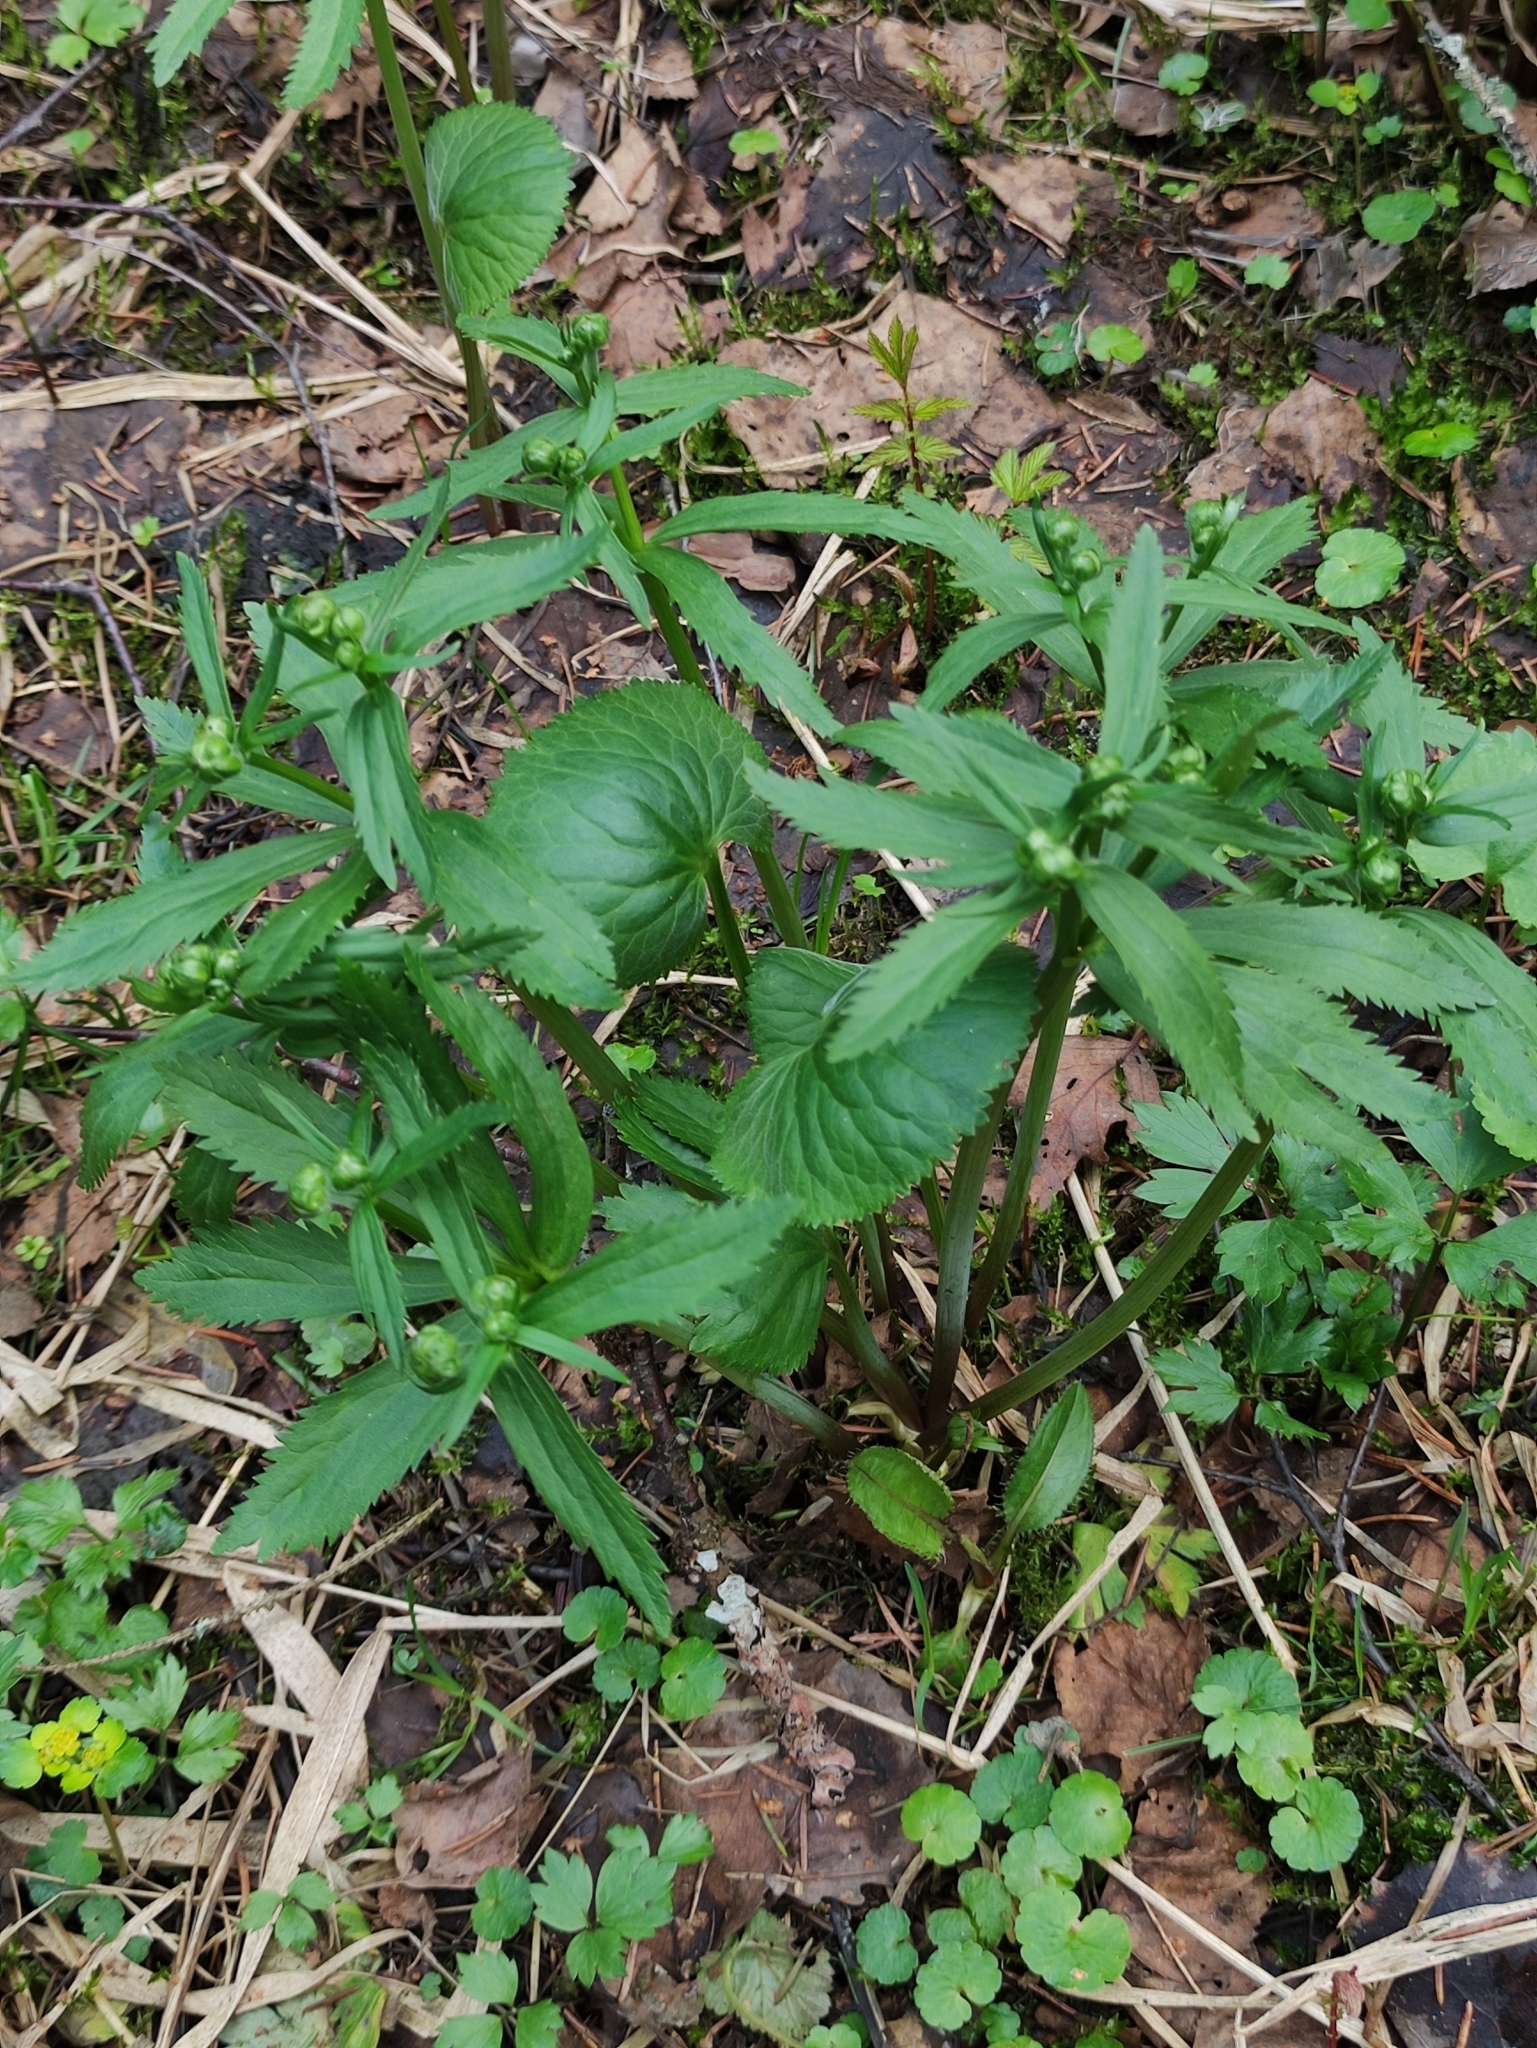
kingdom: Plantae
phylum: Tracheophyta
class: Magnoliopsida
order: Ranunculales
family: Ranunculaceae
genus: Ranunculus
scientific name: Ranunculus cassubicus
